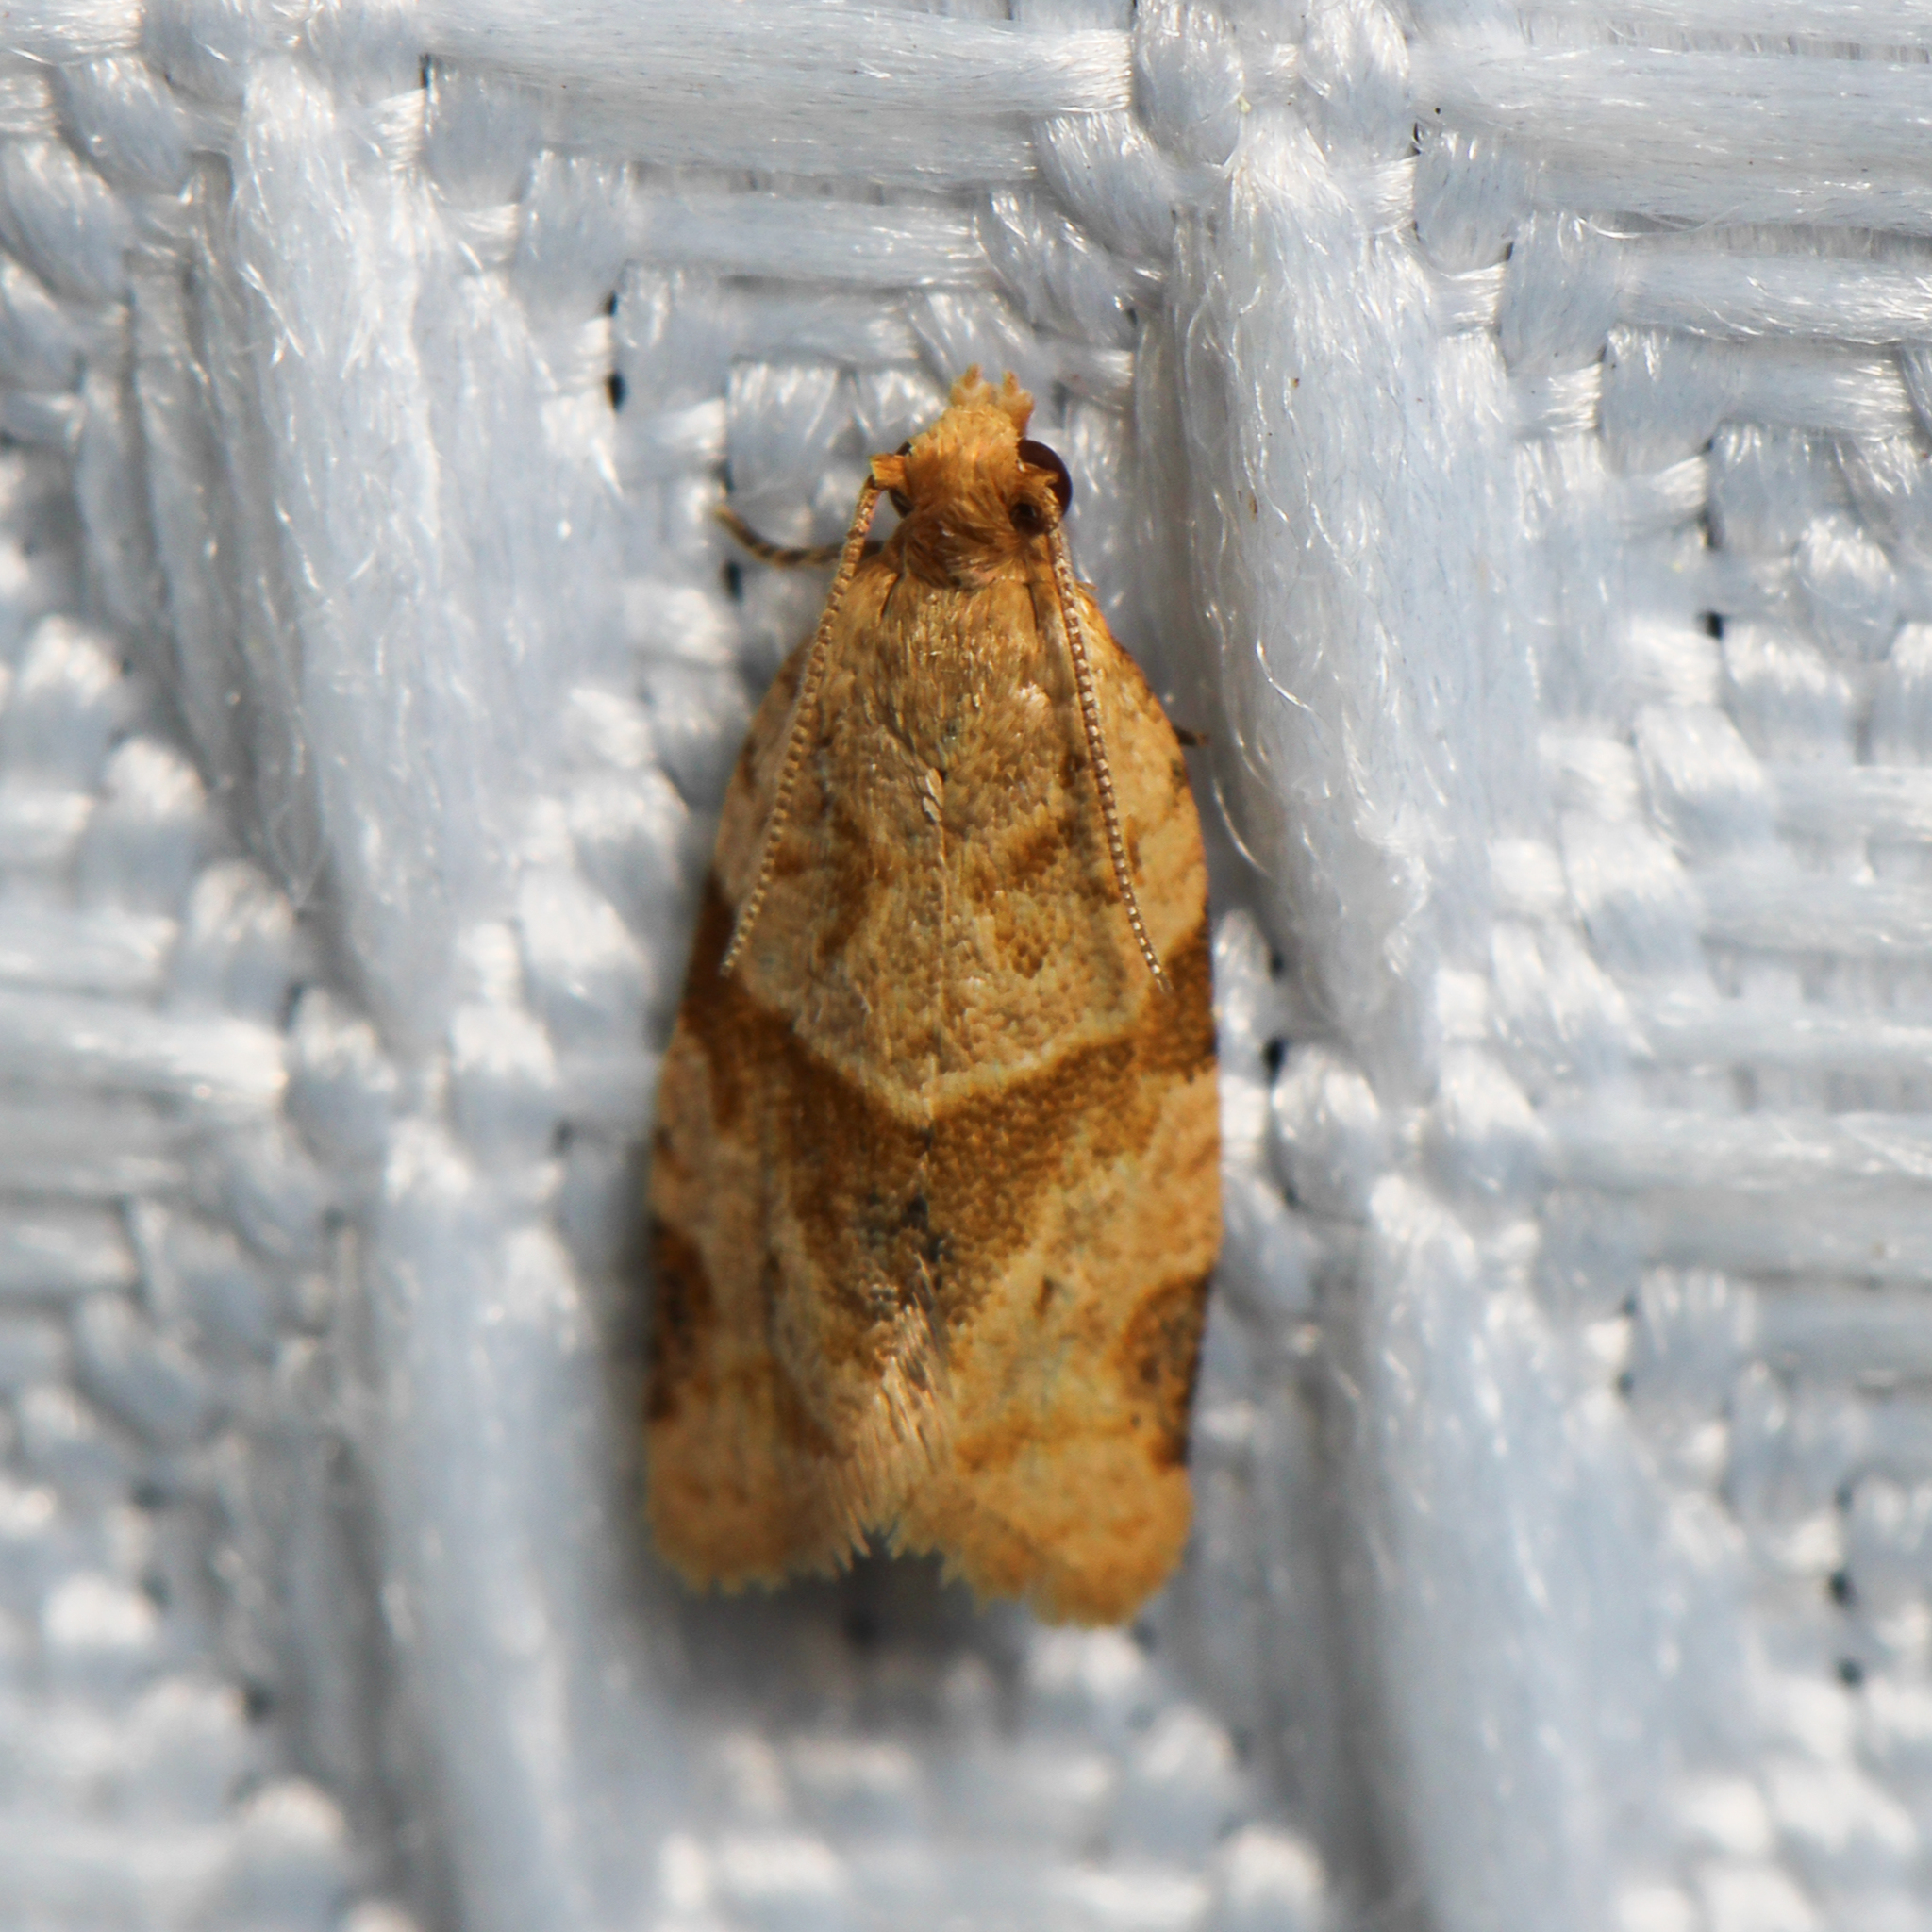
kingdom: Animalia
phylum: Arthropoda
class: Insecta
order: Lepidoptera
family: Tortricidae
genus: Clepsis
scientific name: Clepsis peritana
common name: Garden tortrix
